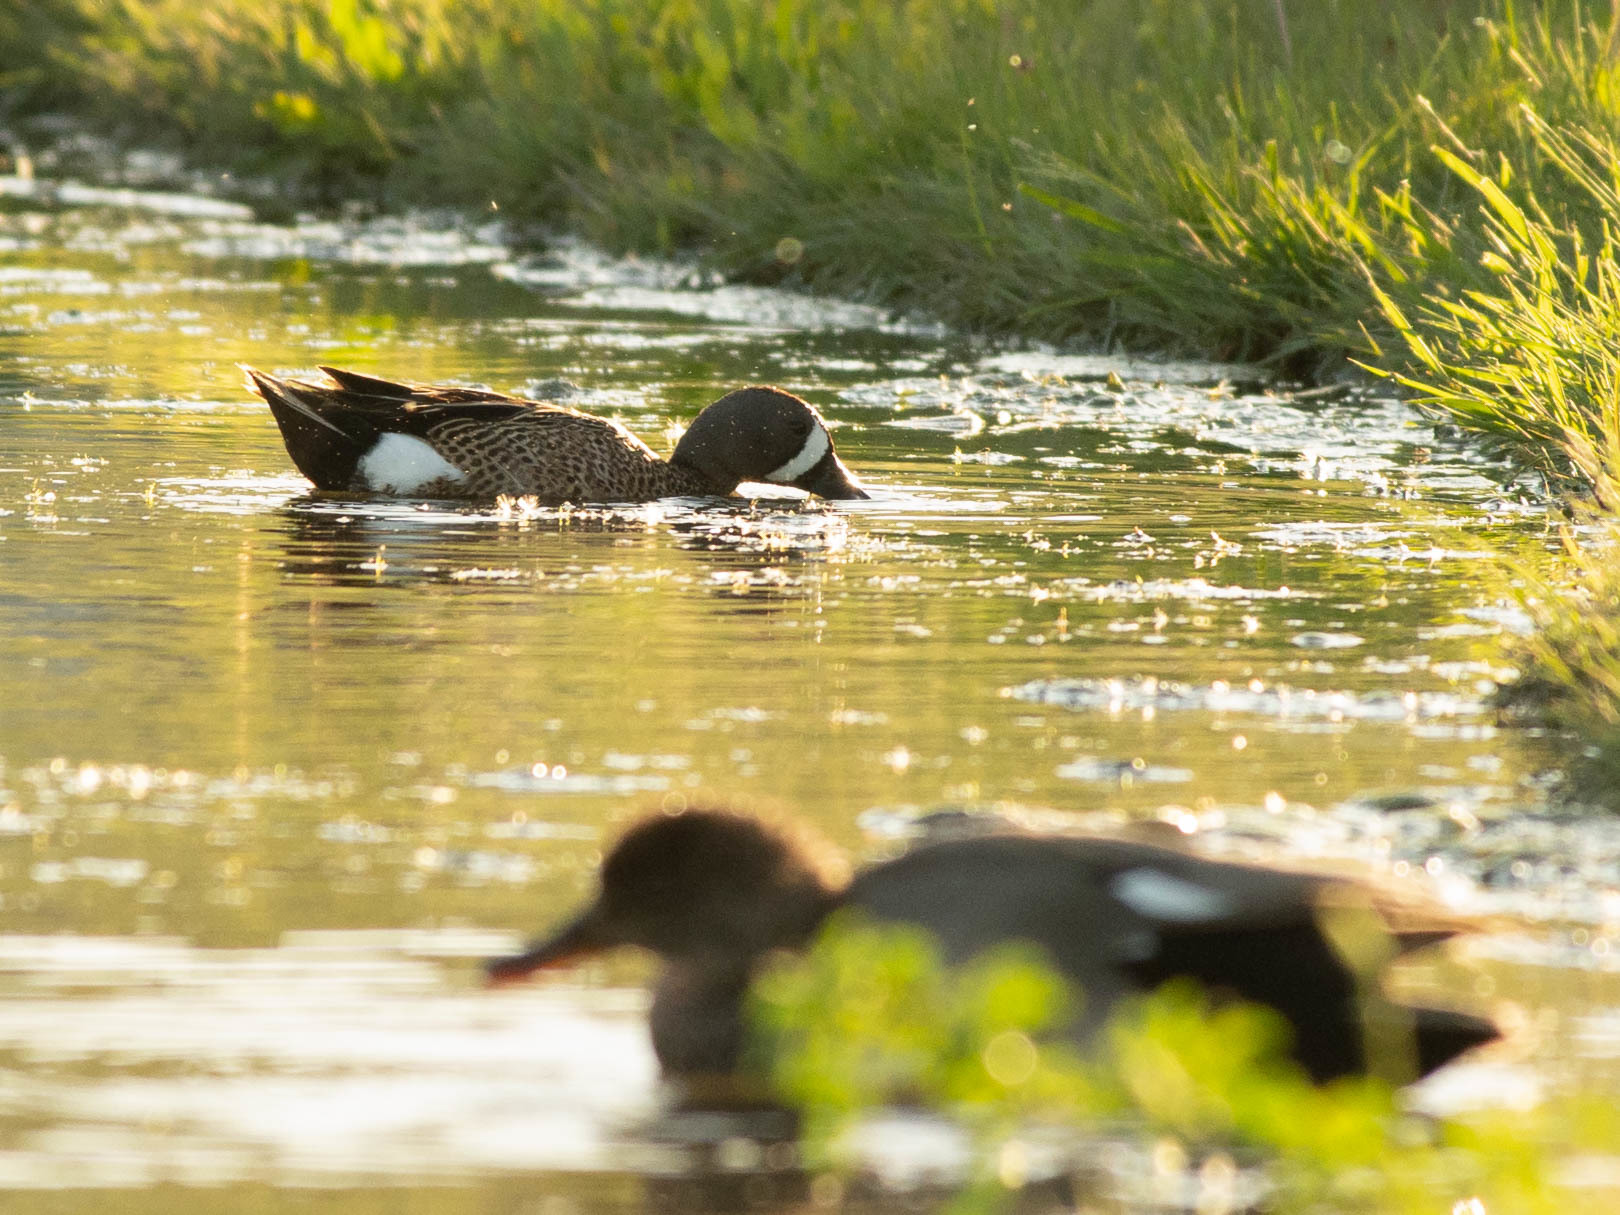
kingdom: Animalia
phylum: Chordata
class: Aves
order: Anseriformes
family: Anatidae
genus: Spatula
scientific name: Spatula discors
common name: Blue-winged teal
